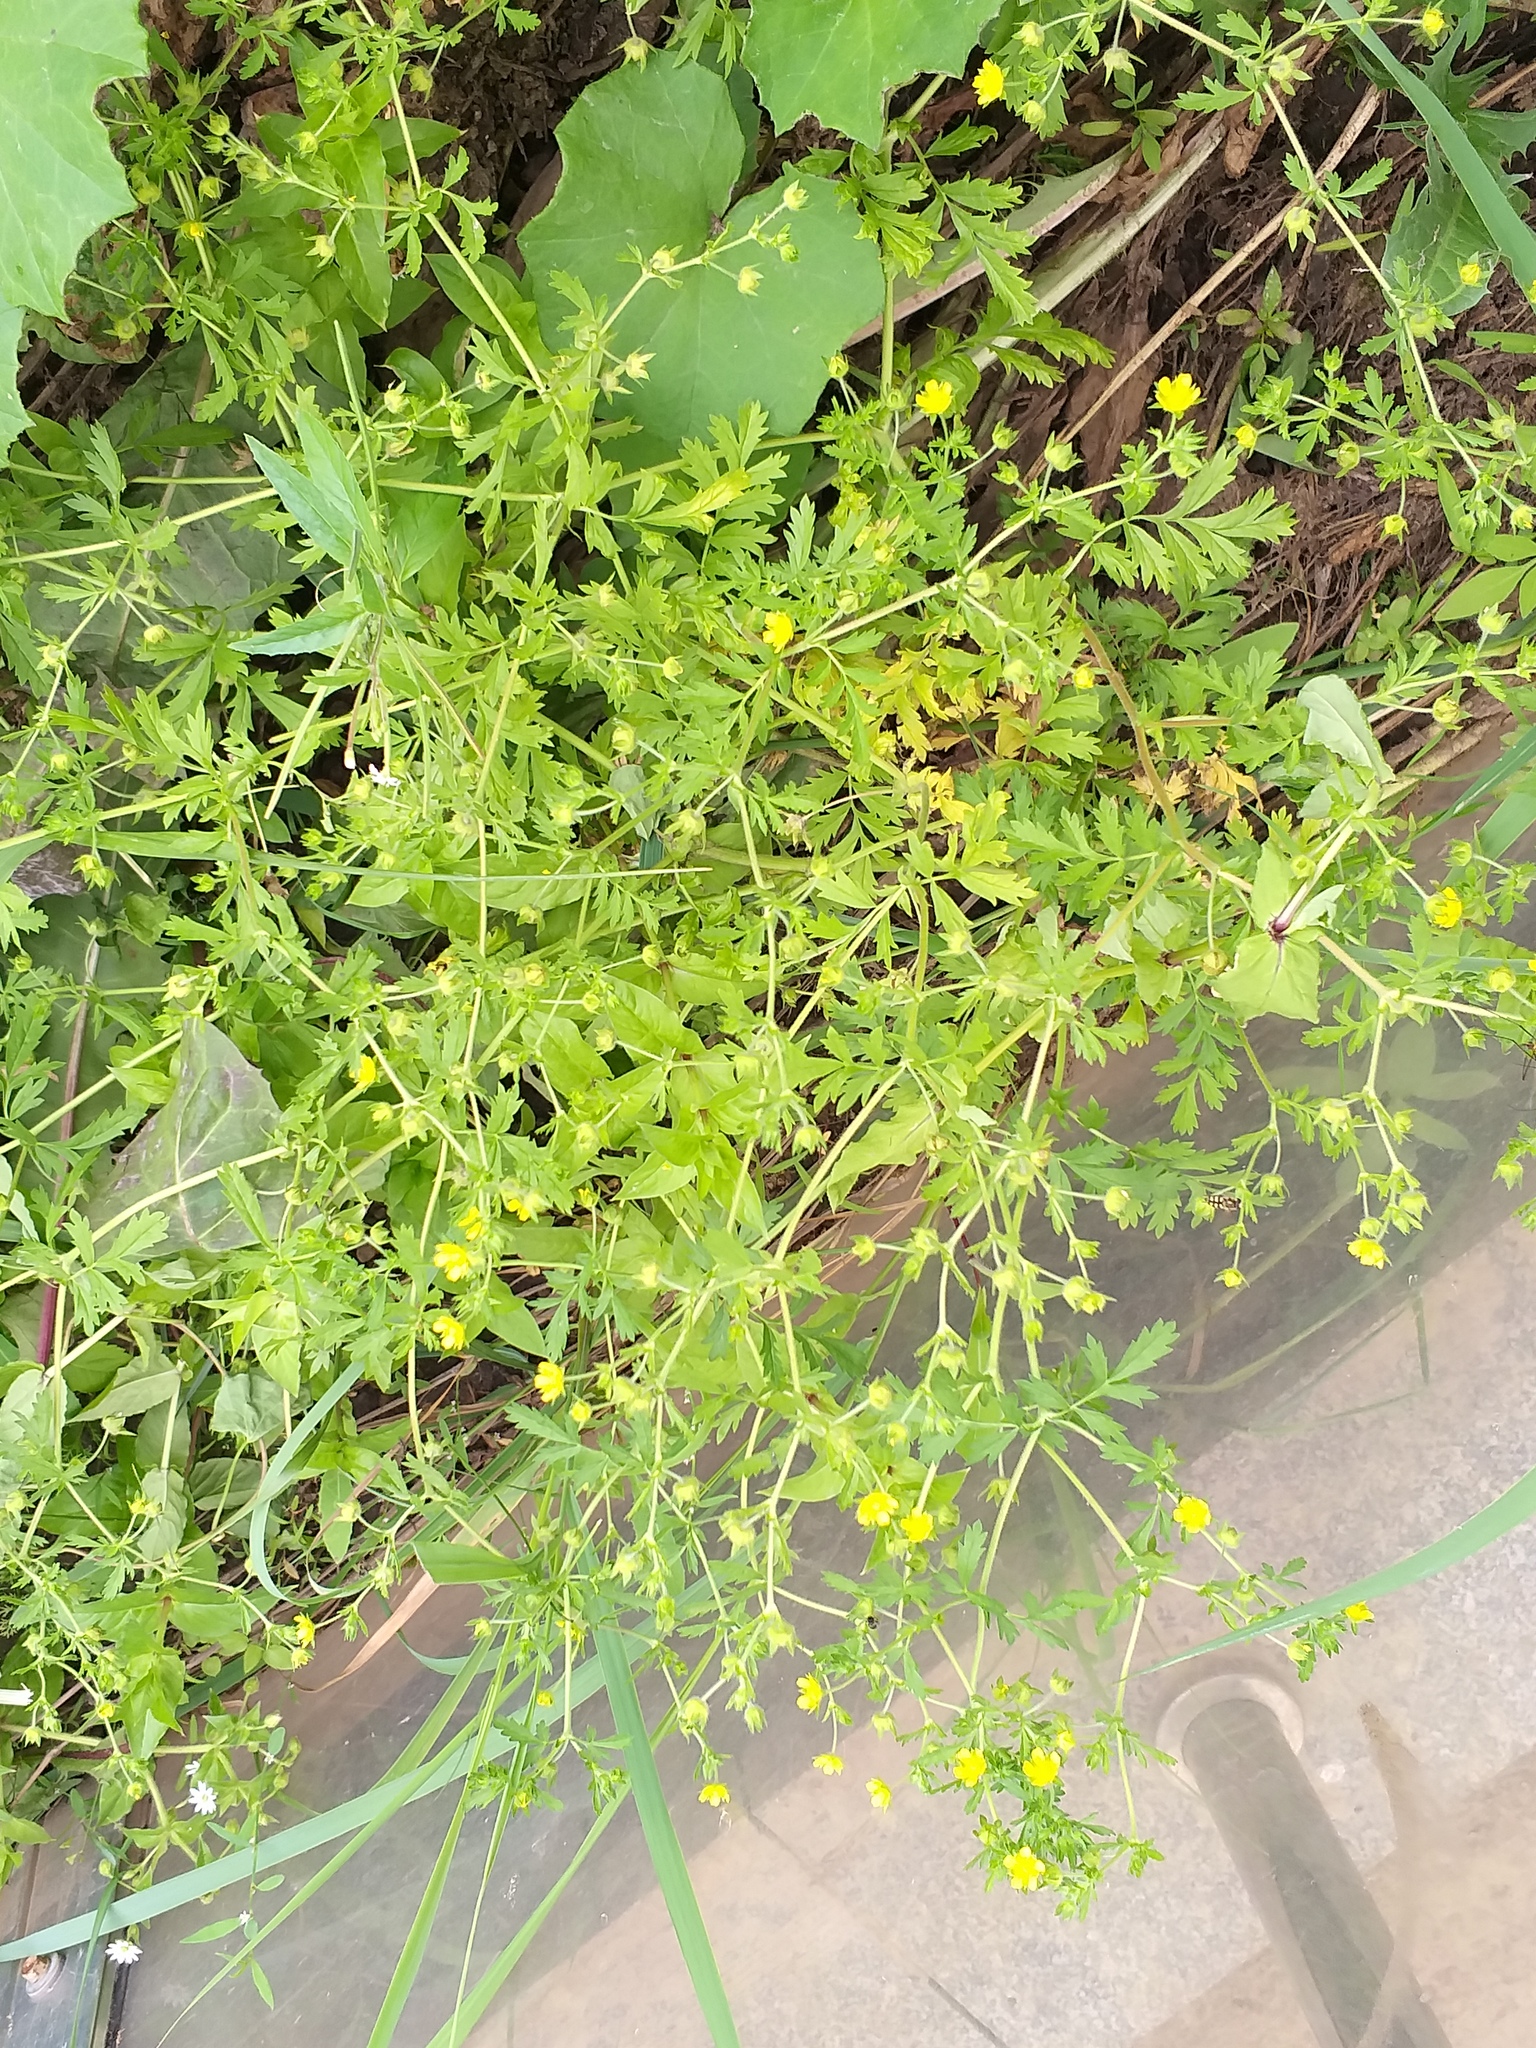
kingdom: Plantae
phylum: Tracheophyta
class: Magnoliopsida
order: Rosales
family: Rosaceae
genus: Potentilla
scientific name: Potentilla supina
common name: Prostrate cinquefoil
